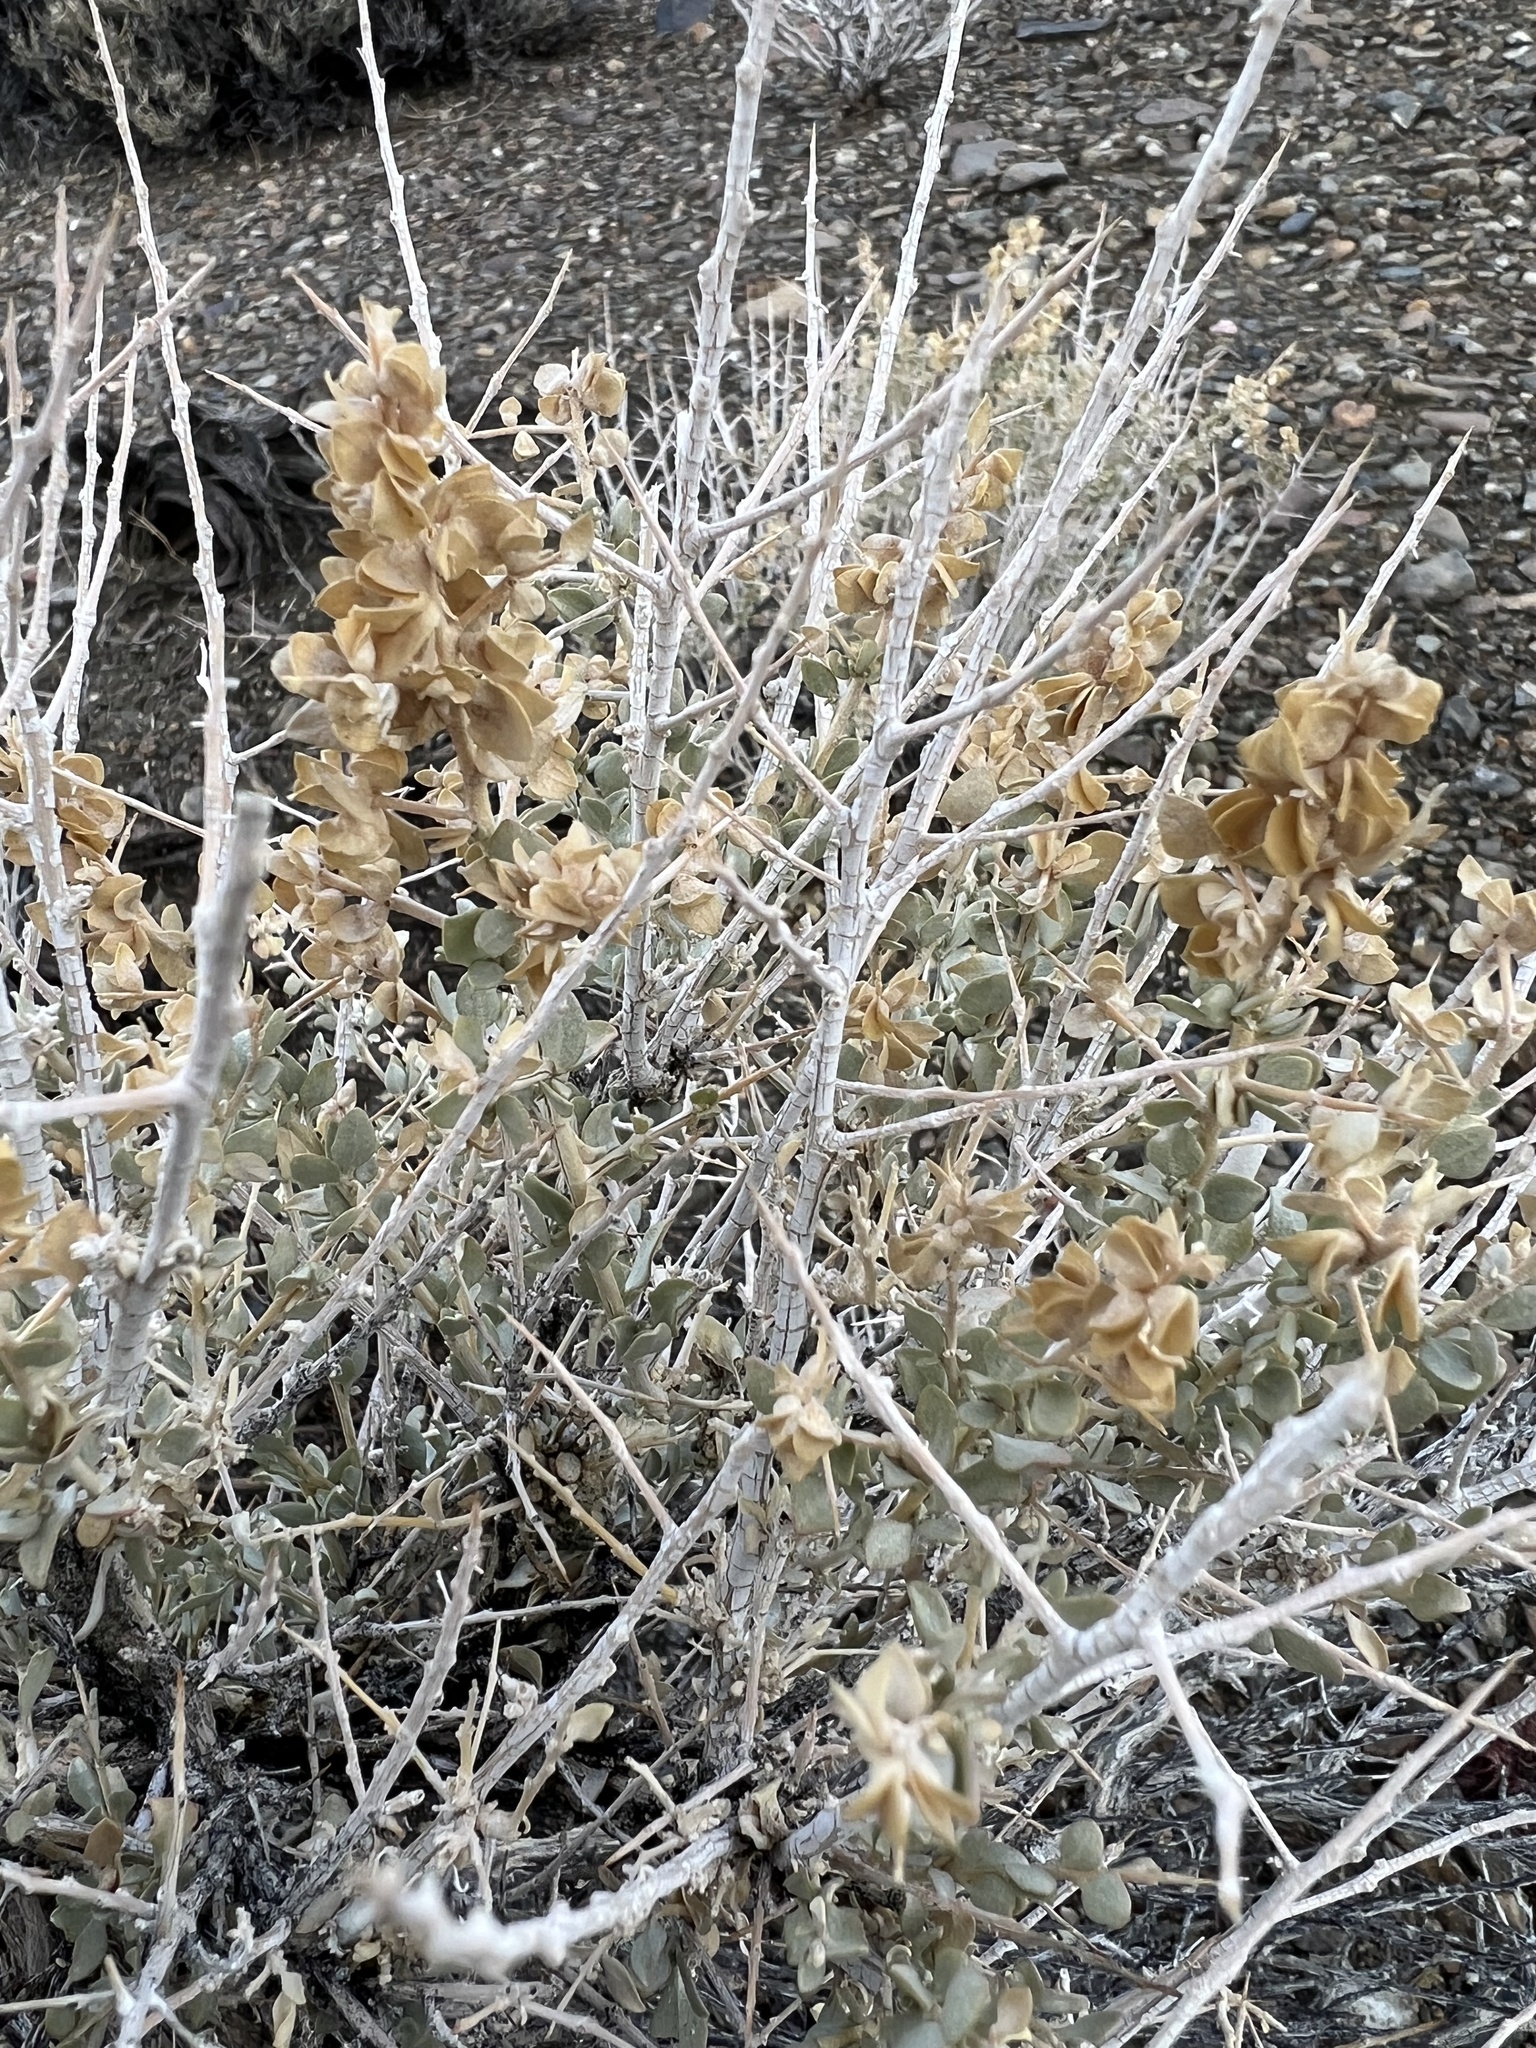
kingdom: Plantae
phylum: Tracheophyta
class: Magnoliopsida
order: Caryophyllales
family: Amaranthaceae
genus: Atriplex
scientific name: Atriplex confertifolia
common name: Shadscale
